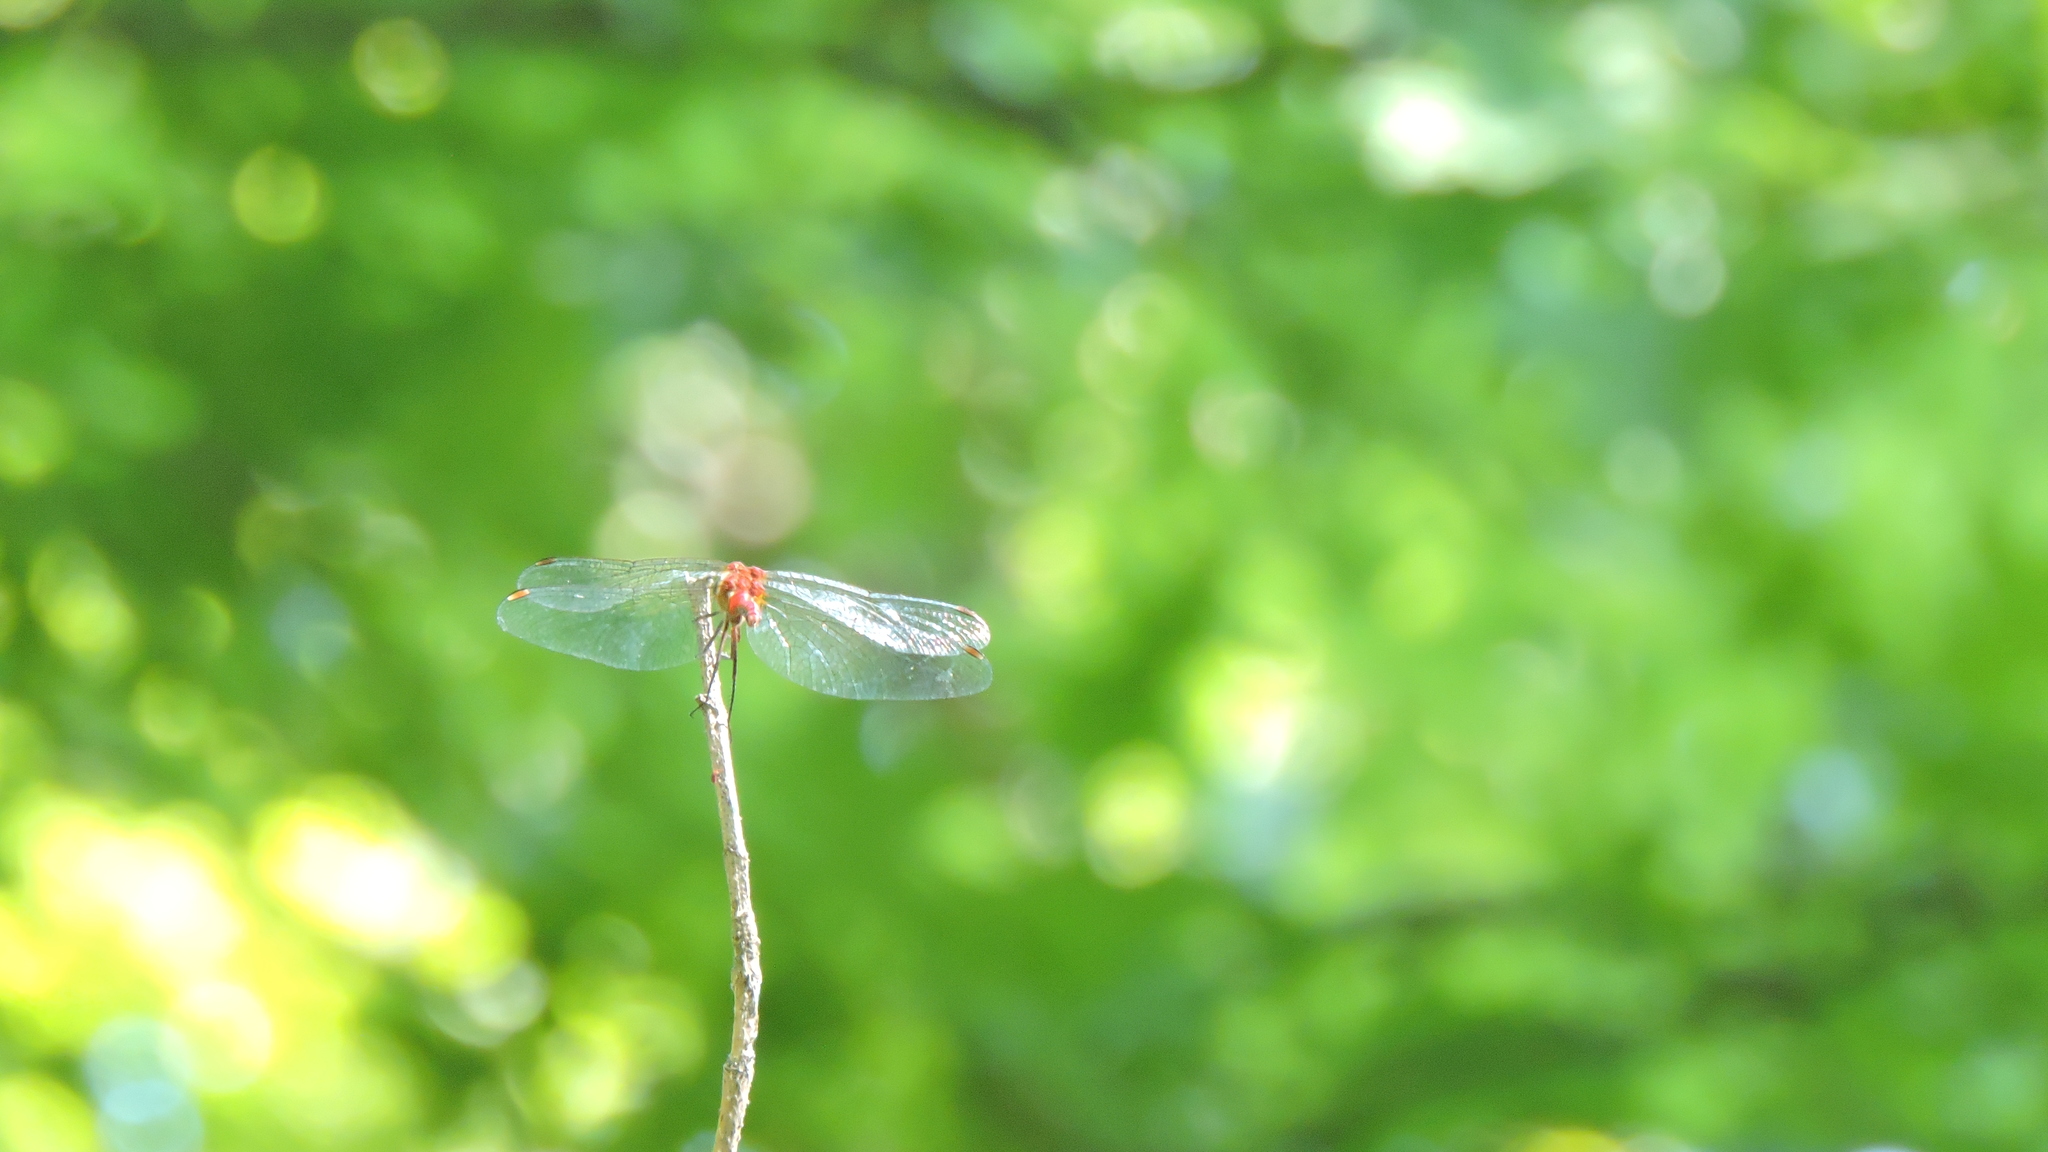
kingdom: Animalia
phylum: Arthropoda
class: Insecta
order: Odonata
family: Libellulidae
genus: Sympetrum
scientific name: Sympetrum
